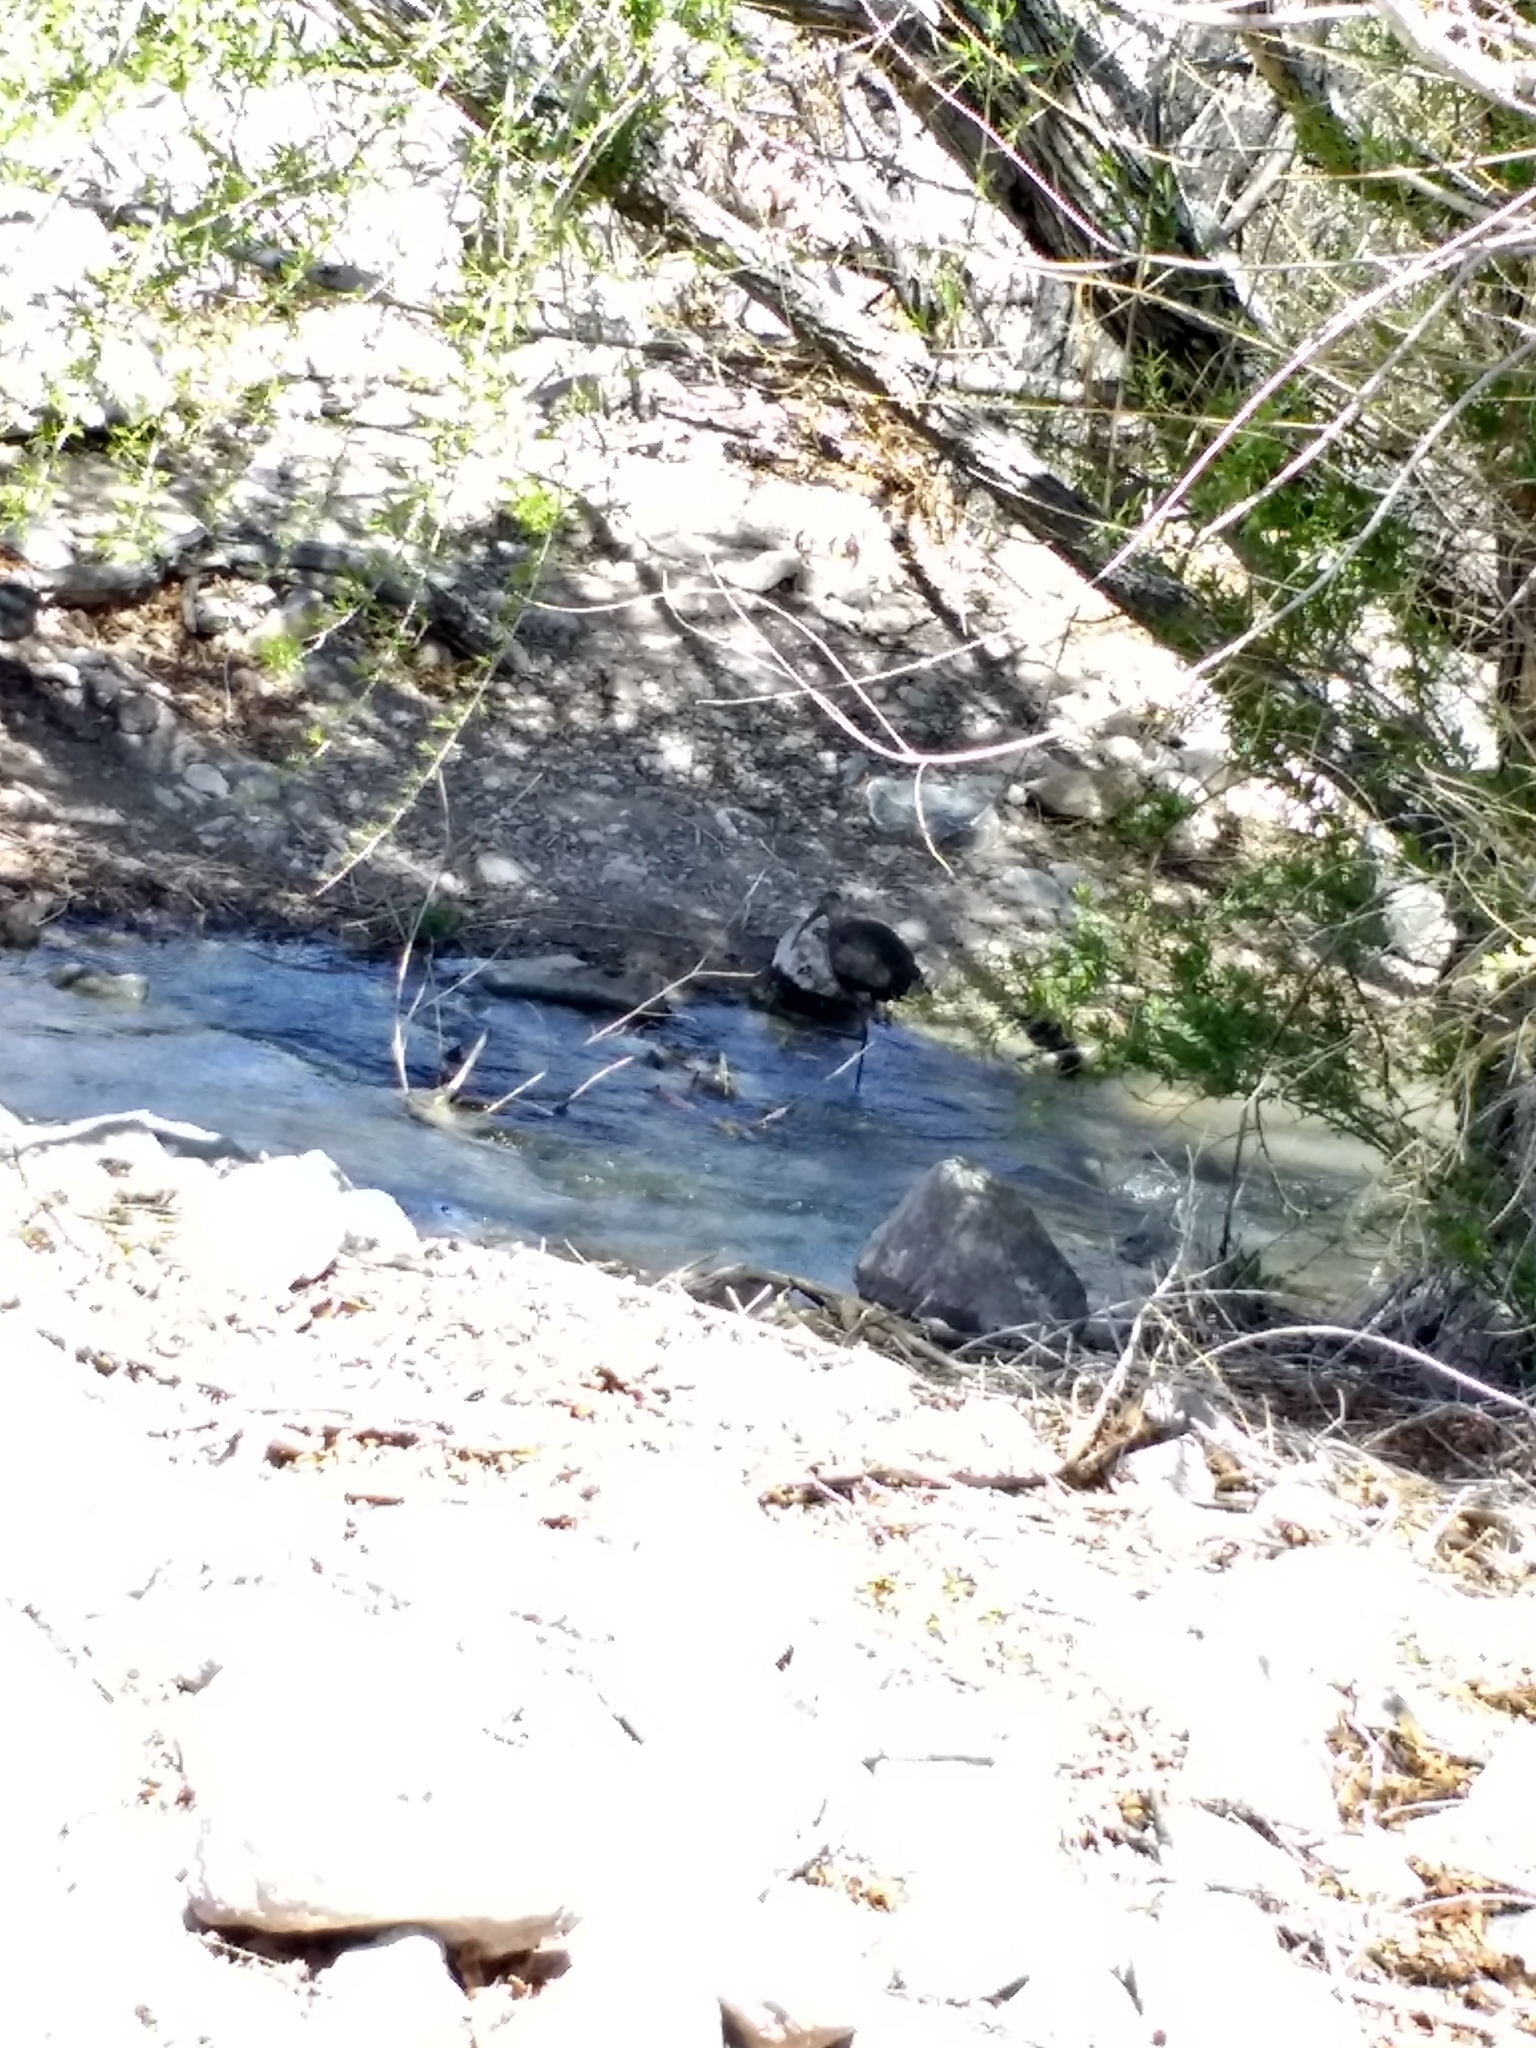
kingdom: Animalia
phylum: Chordata
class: Aves
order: Pelecaniformes
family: Threskiornithidae
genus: Plegadis
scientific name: Plegadis chihi
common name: White-faced ibis
